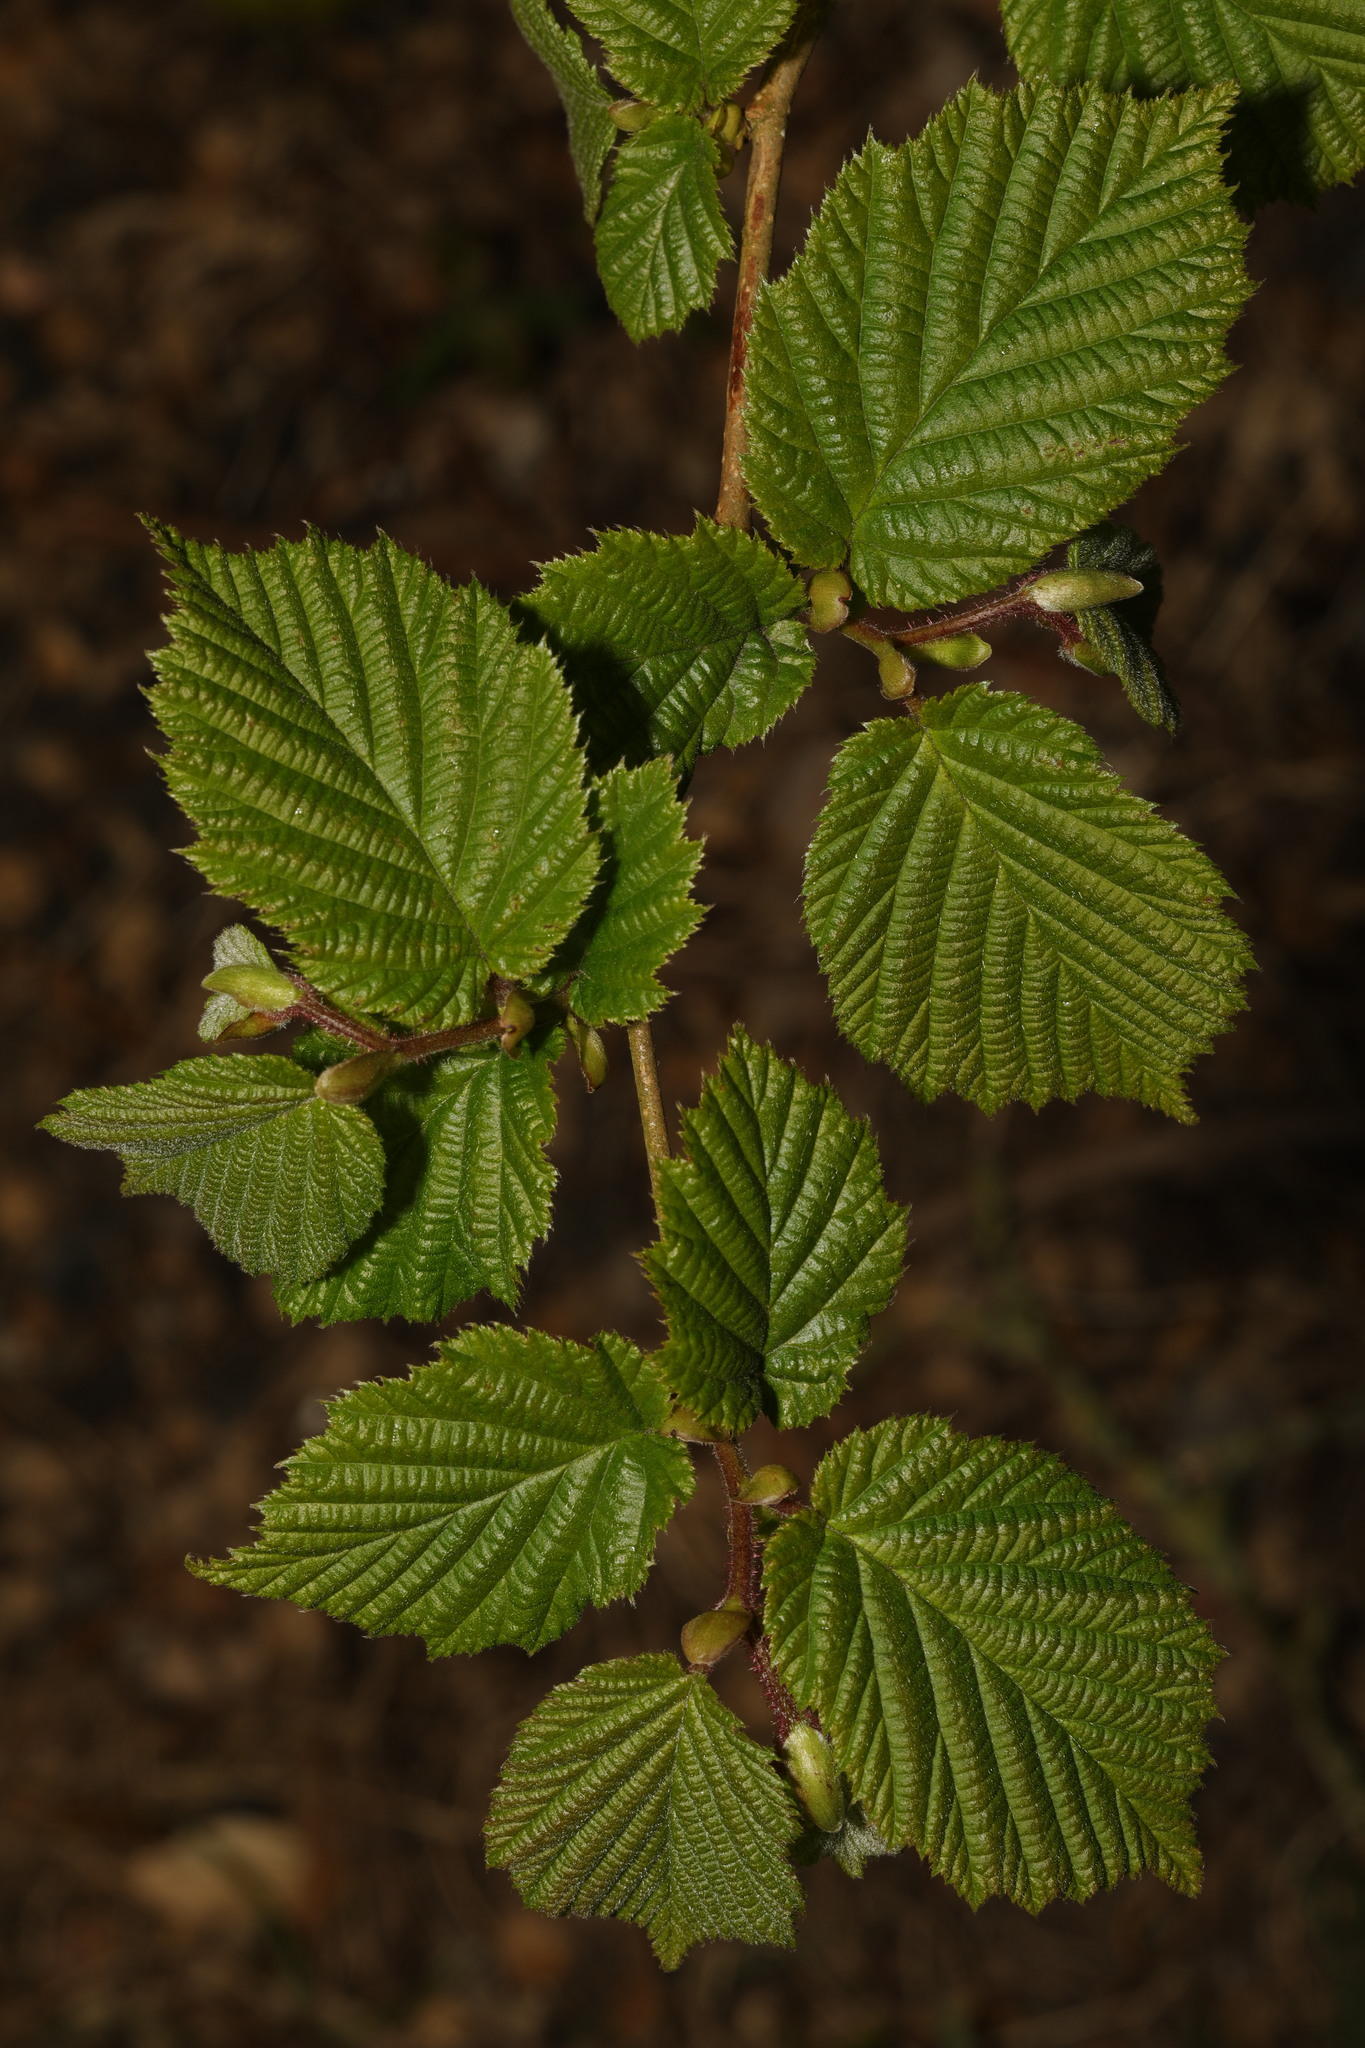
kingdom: Plantae
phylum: Tracheophyta
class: Magnoliopsida
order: Fagales
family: Betulaceae
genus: Corylus
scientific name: Corylus avellana
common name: European hazel
